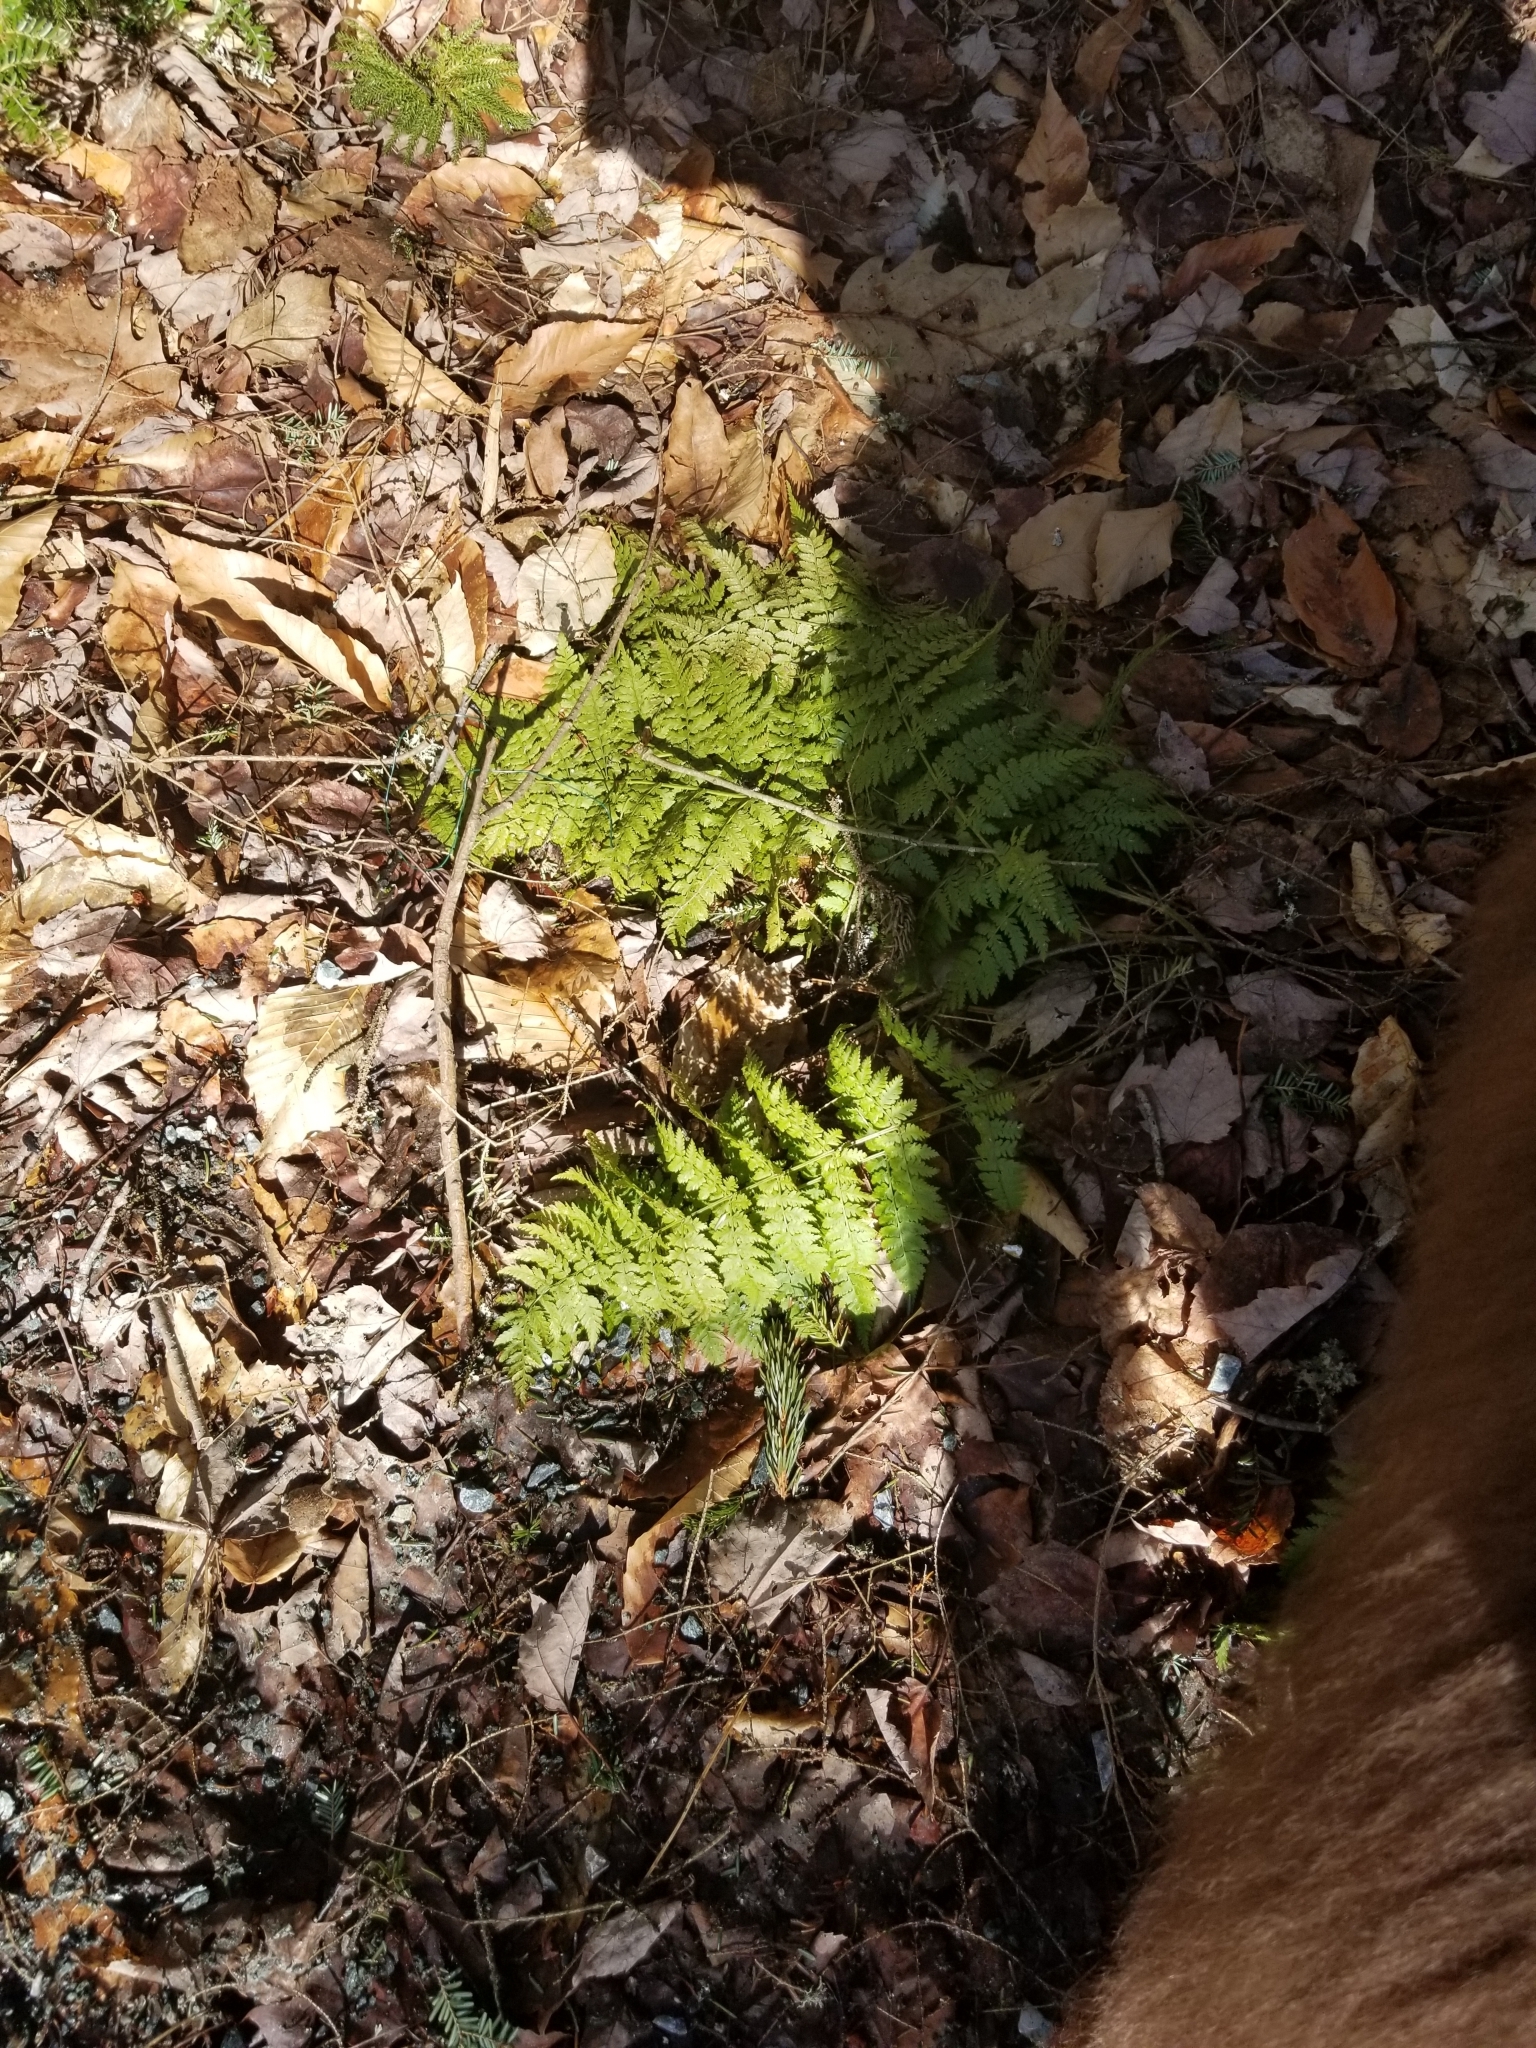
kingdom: Plantae
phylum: Tracheophyta
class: Polypodiopsida
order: Polypodiales
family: Dryopteridaceae
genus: Dryopteris
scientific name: Dryopteris intermedia
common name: Evergreen wood fern
